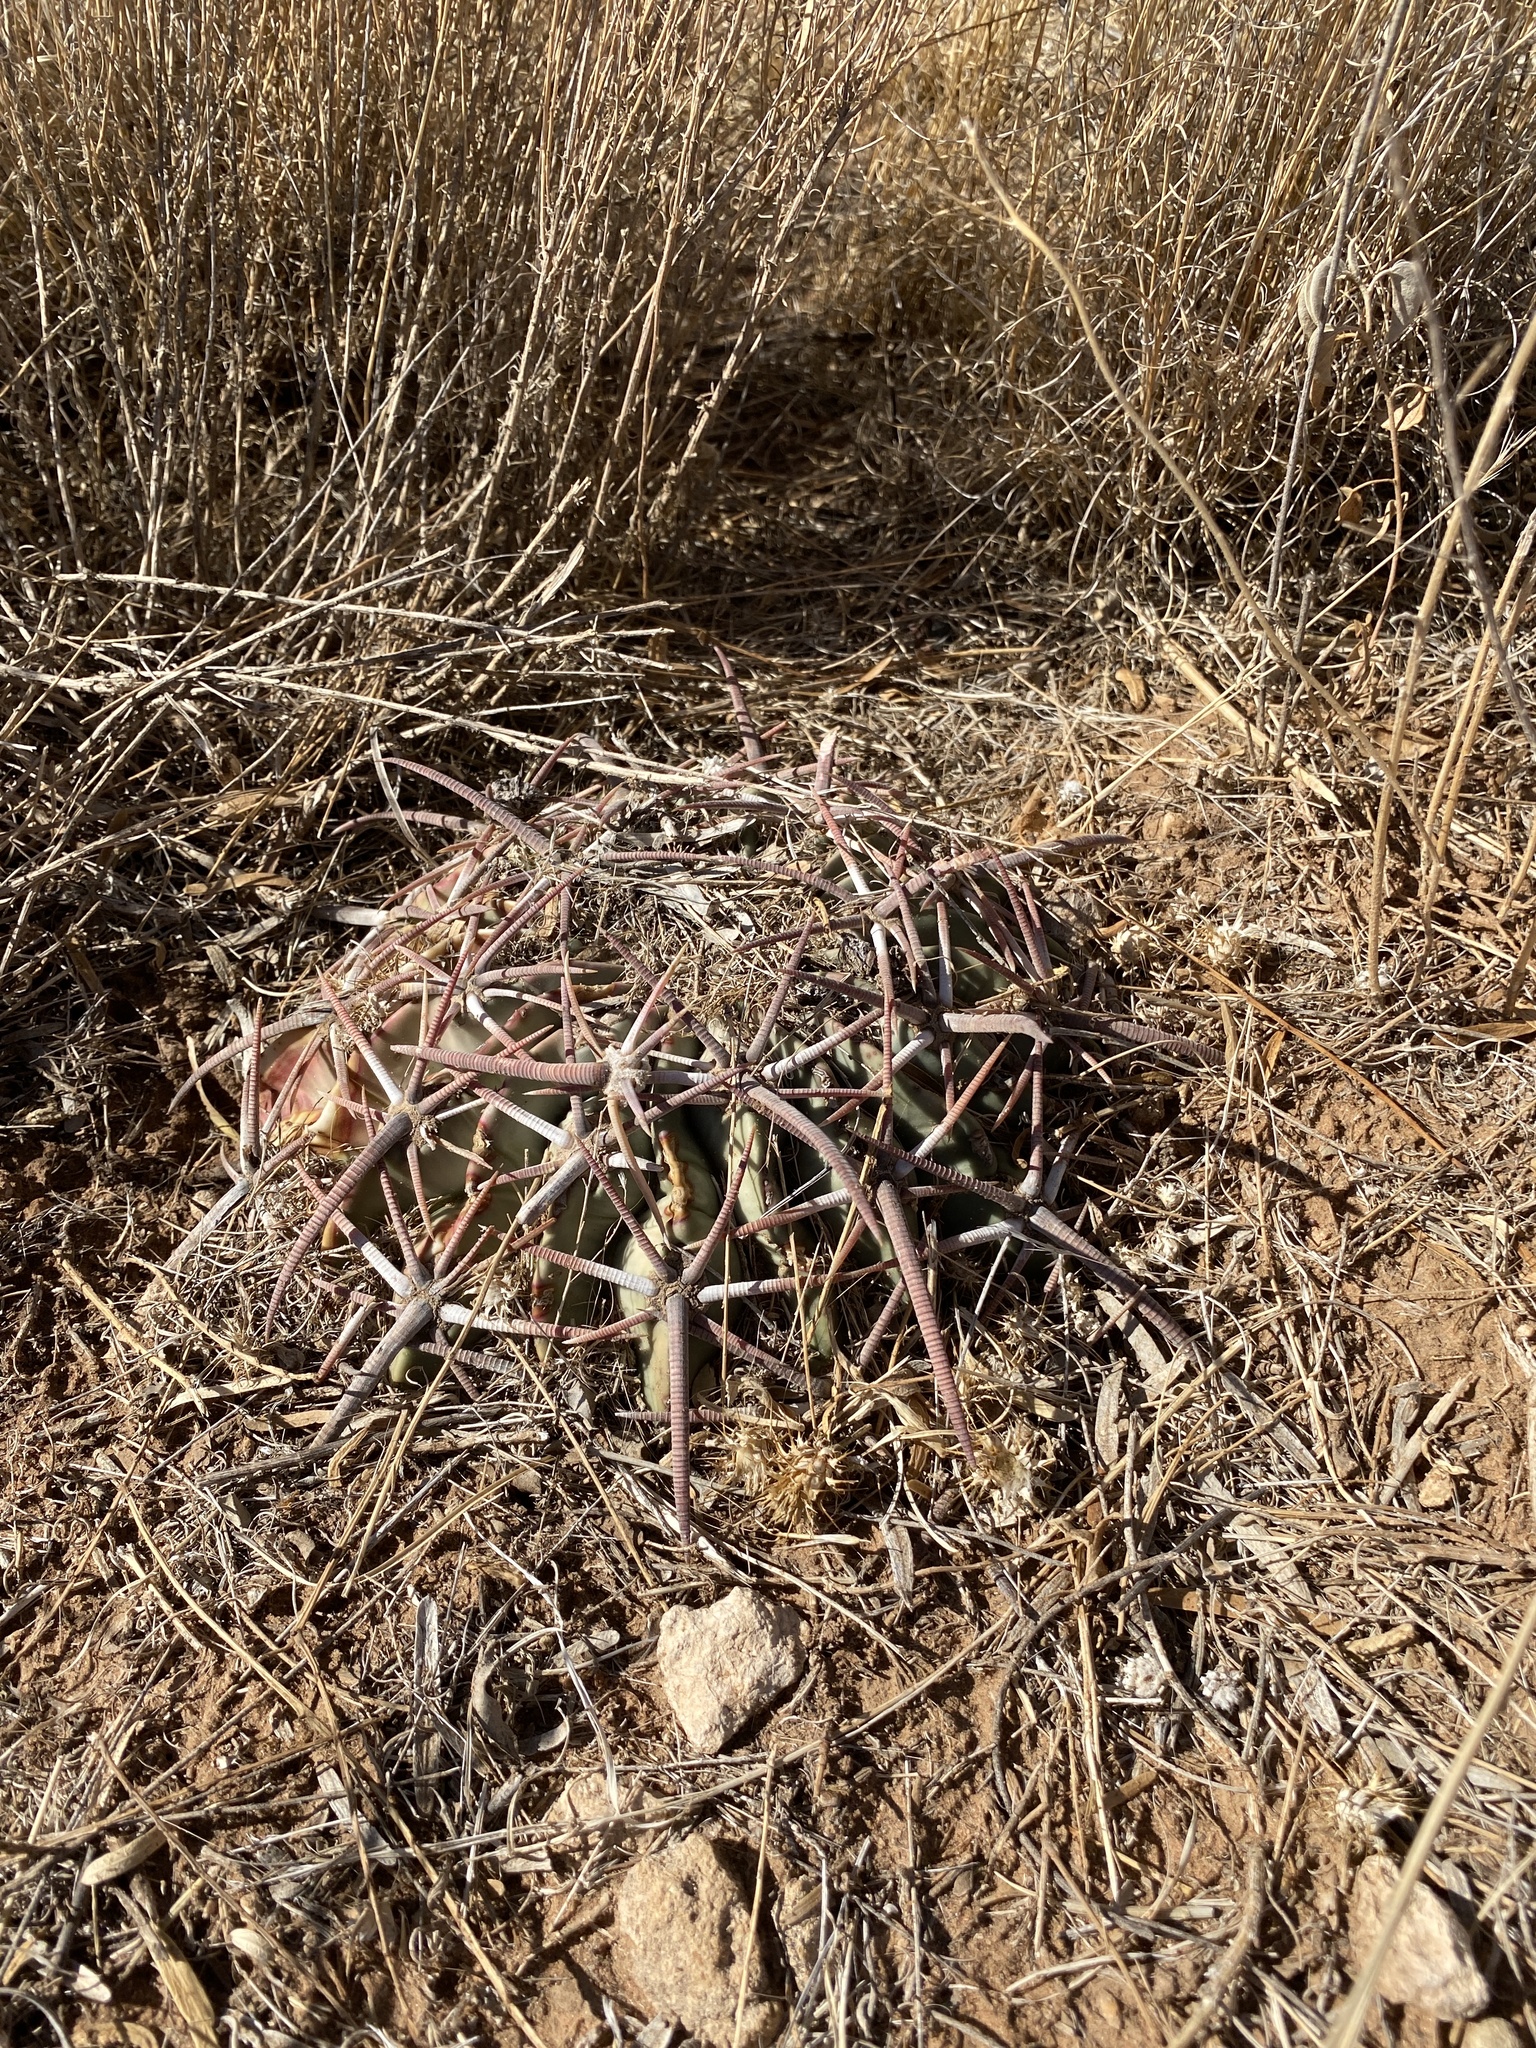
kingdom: Plantae
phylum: Tracheophyta
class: Magnoliopsida
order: Caryophyllales
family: Cactaceae
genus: Echinocactus
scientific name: Echinocactus texensis
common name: Devil's pincushion
